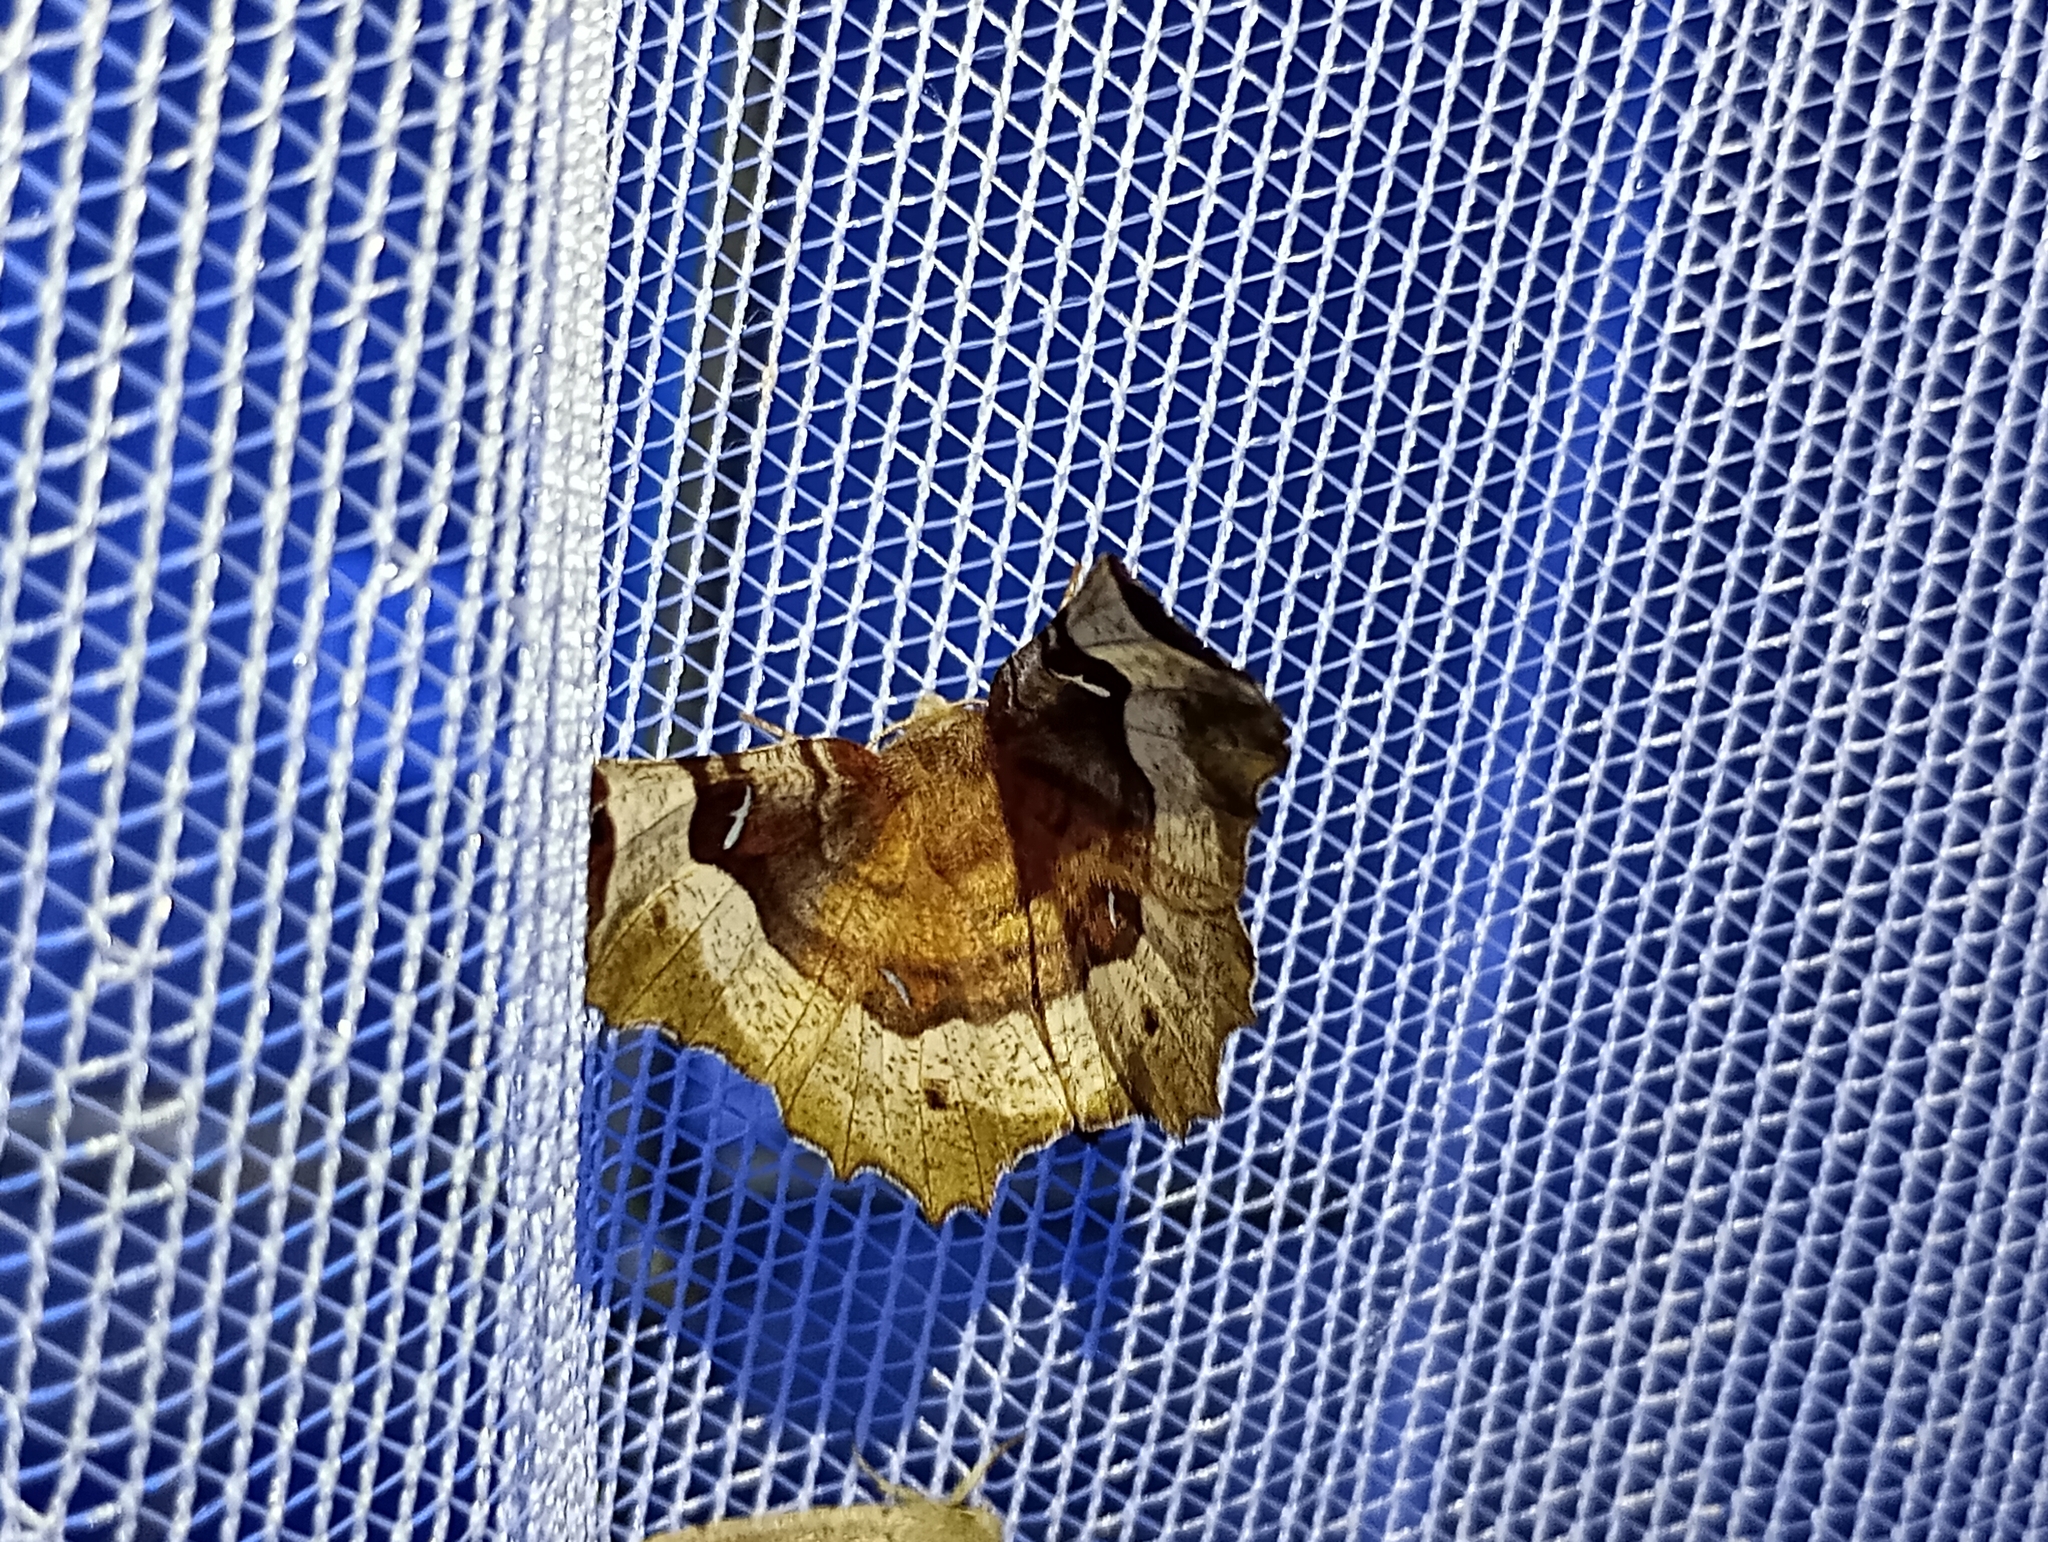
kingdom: Animalia
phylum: Arthropoda
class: Insecta
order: Lepidoptera
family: Geometridae
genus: Selenia
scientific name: Selenia tetralunaria
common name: Purple thorn
